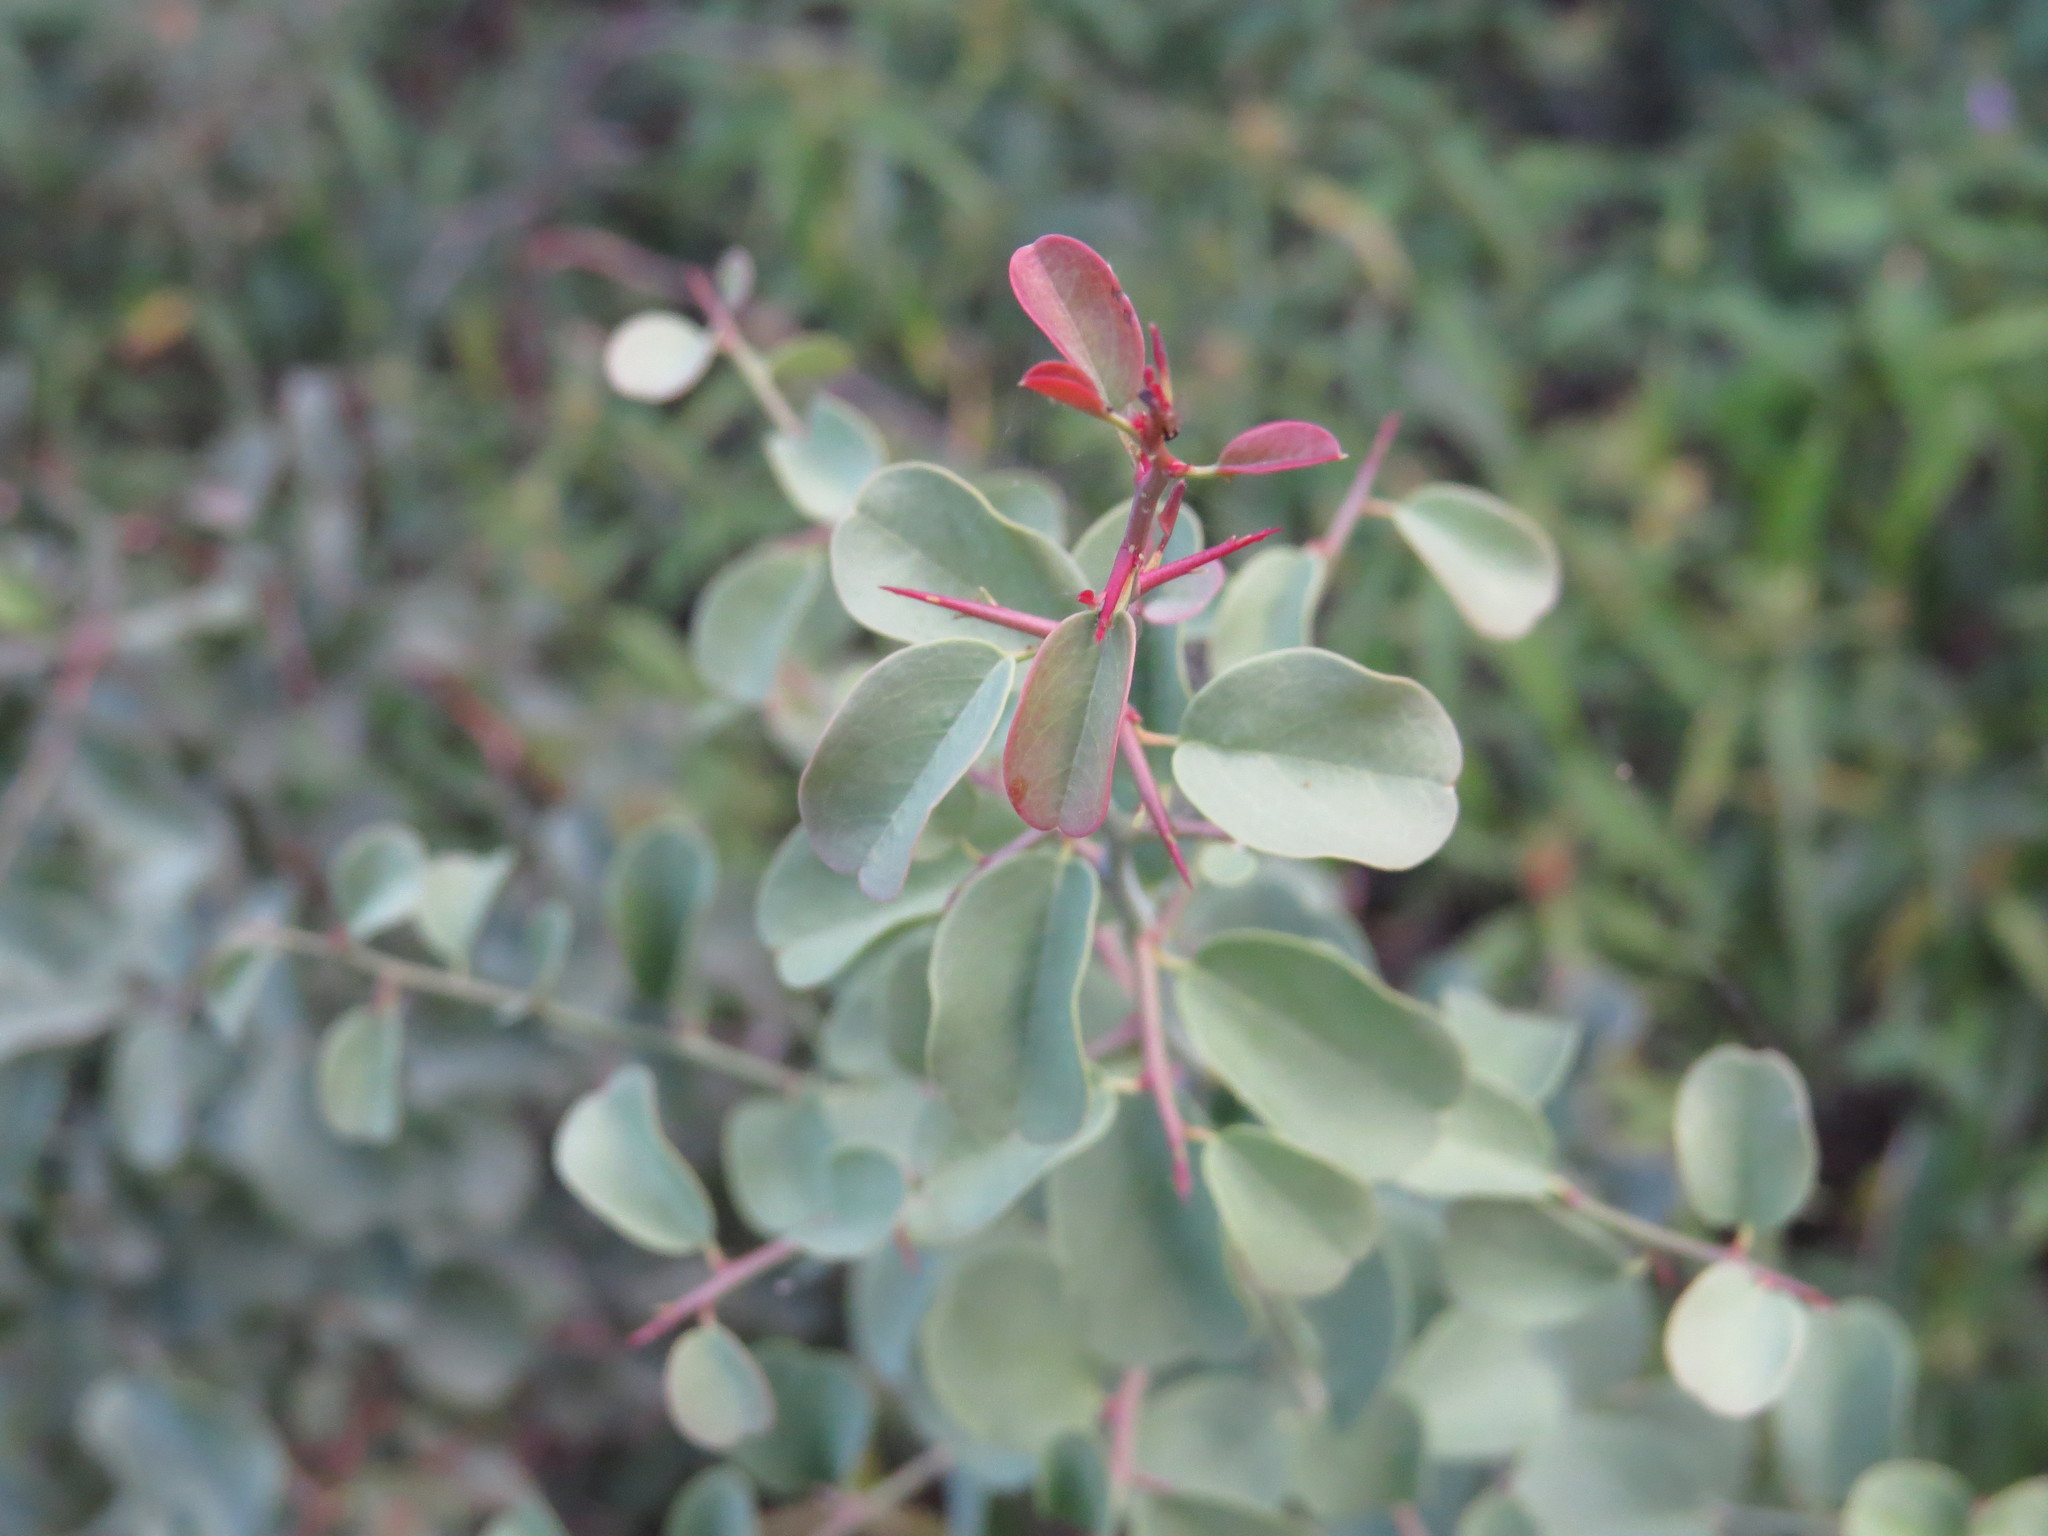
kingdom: Plantae
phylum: Tracheophyta
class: Magnoliopsida
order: Santalales
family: Ximeniaceae
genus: Ximenia
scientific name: Ximenia americana
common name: Tallowwood
